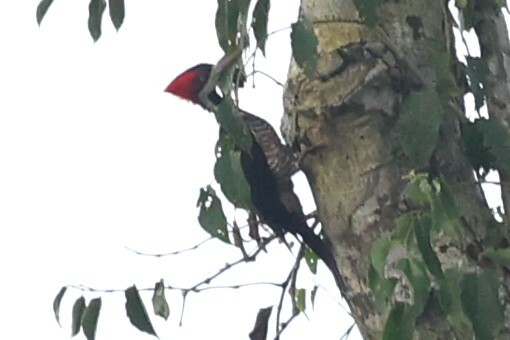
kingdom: Animalia
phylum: Chordata
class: Aves
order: Piciformes
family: Picidae
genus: Campephilus
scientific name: Campephilus melanoleucos
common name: Crimson-crested woodpecker
